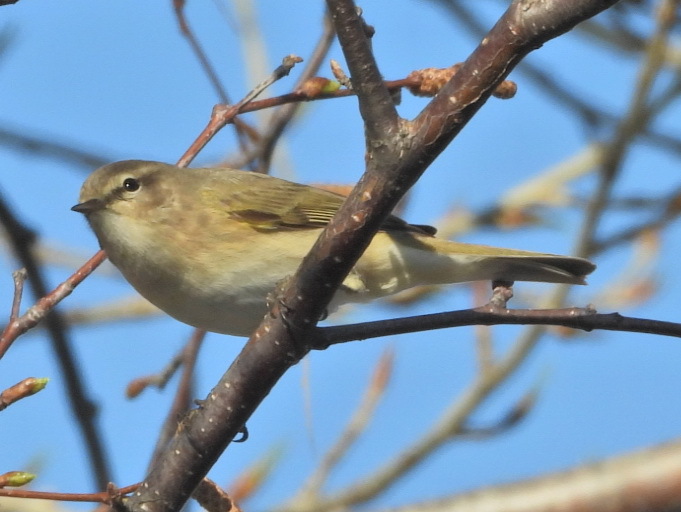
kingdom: Animalia
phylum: Chordata
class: Aves
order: Passeriformes
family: Phylloscopidae
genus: Phylloscopus
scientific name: Phylloscopus collybita
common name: Common chiffchaff
